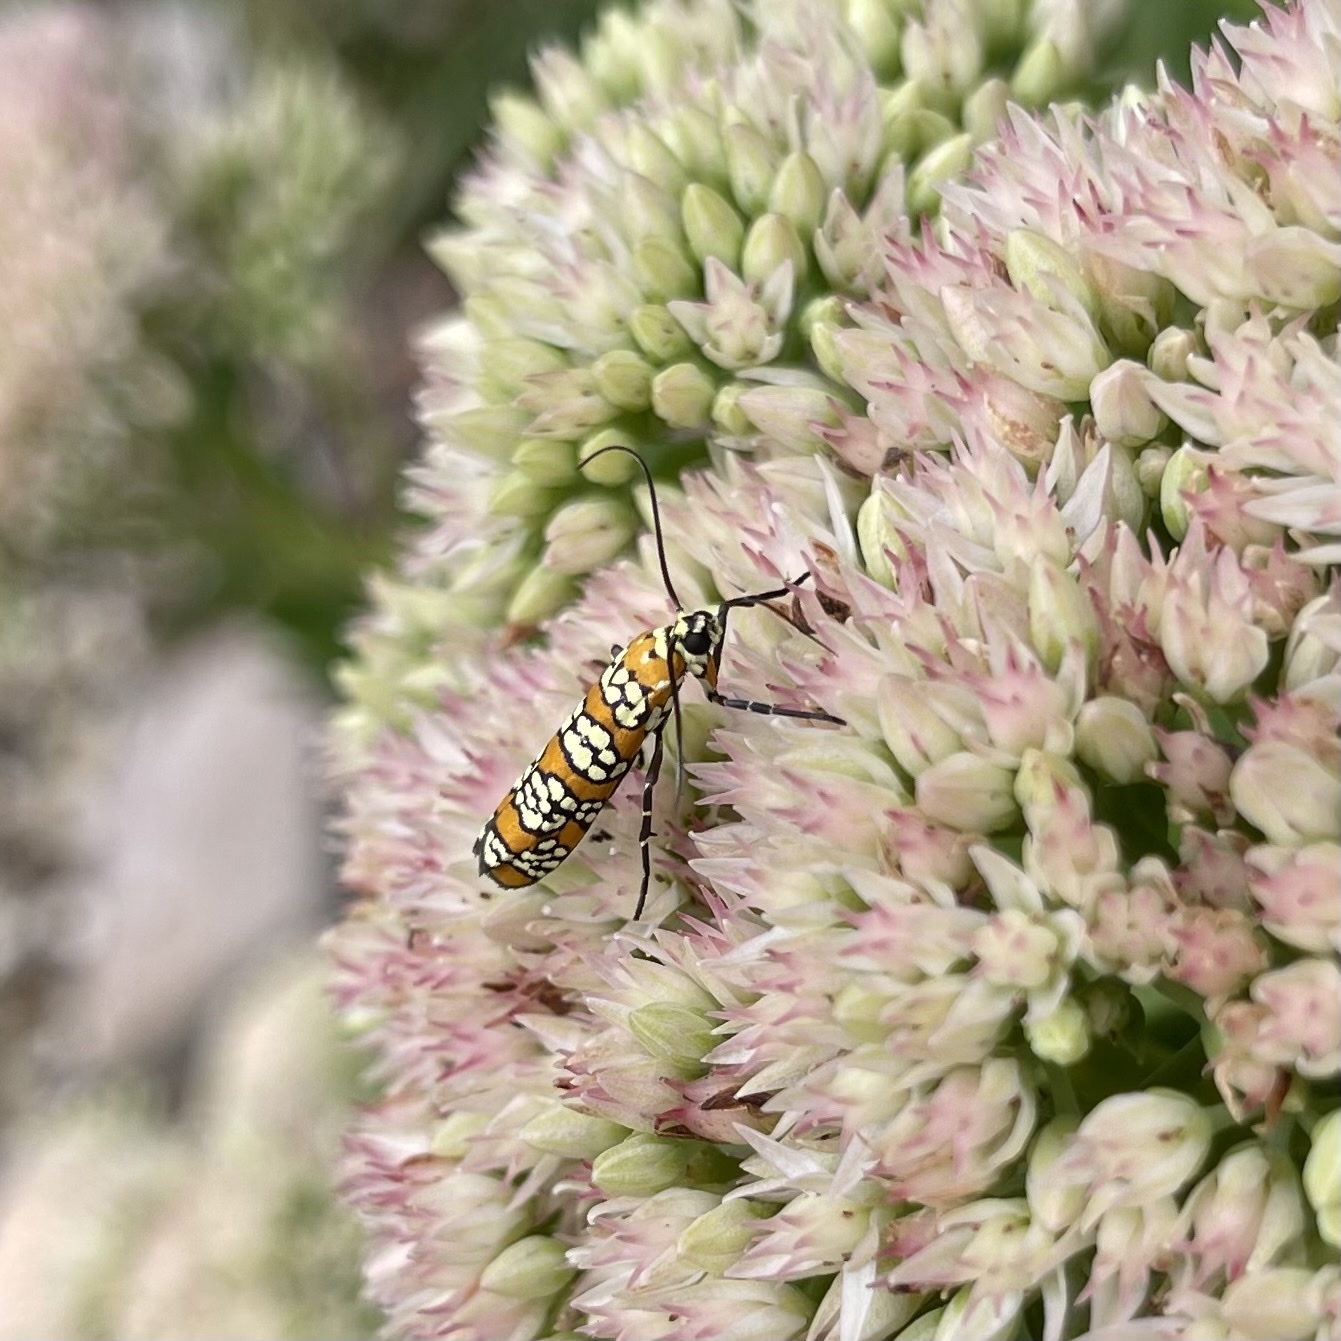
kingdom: Animalia
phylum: Arthropoda
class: Insecta
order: Lepidoptera
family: Attevidae
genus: Atteva
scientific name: Atteva punctella
